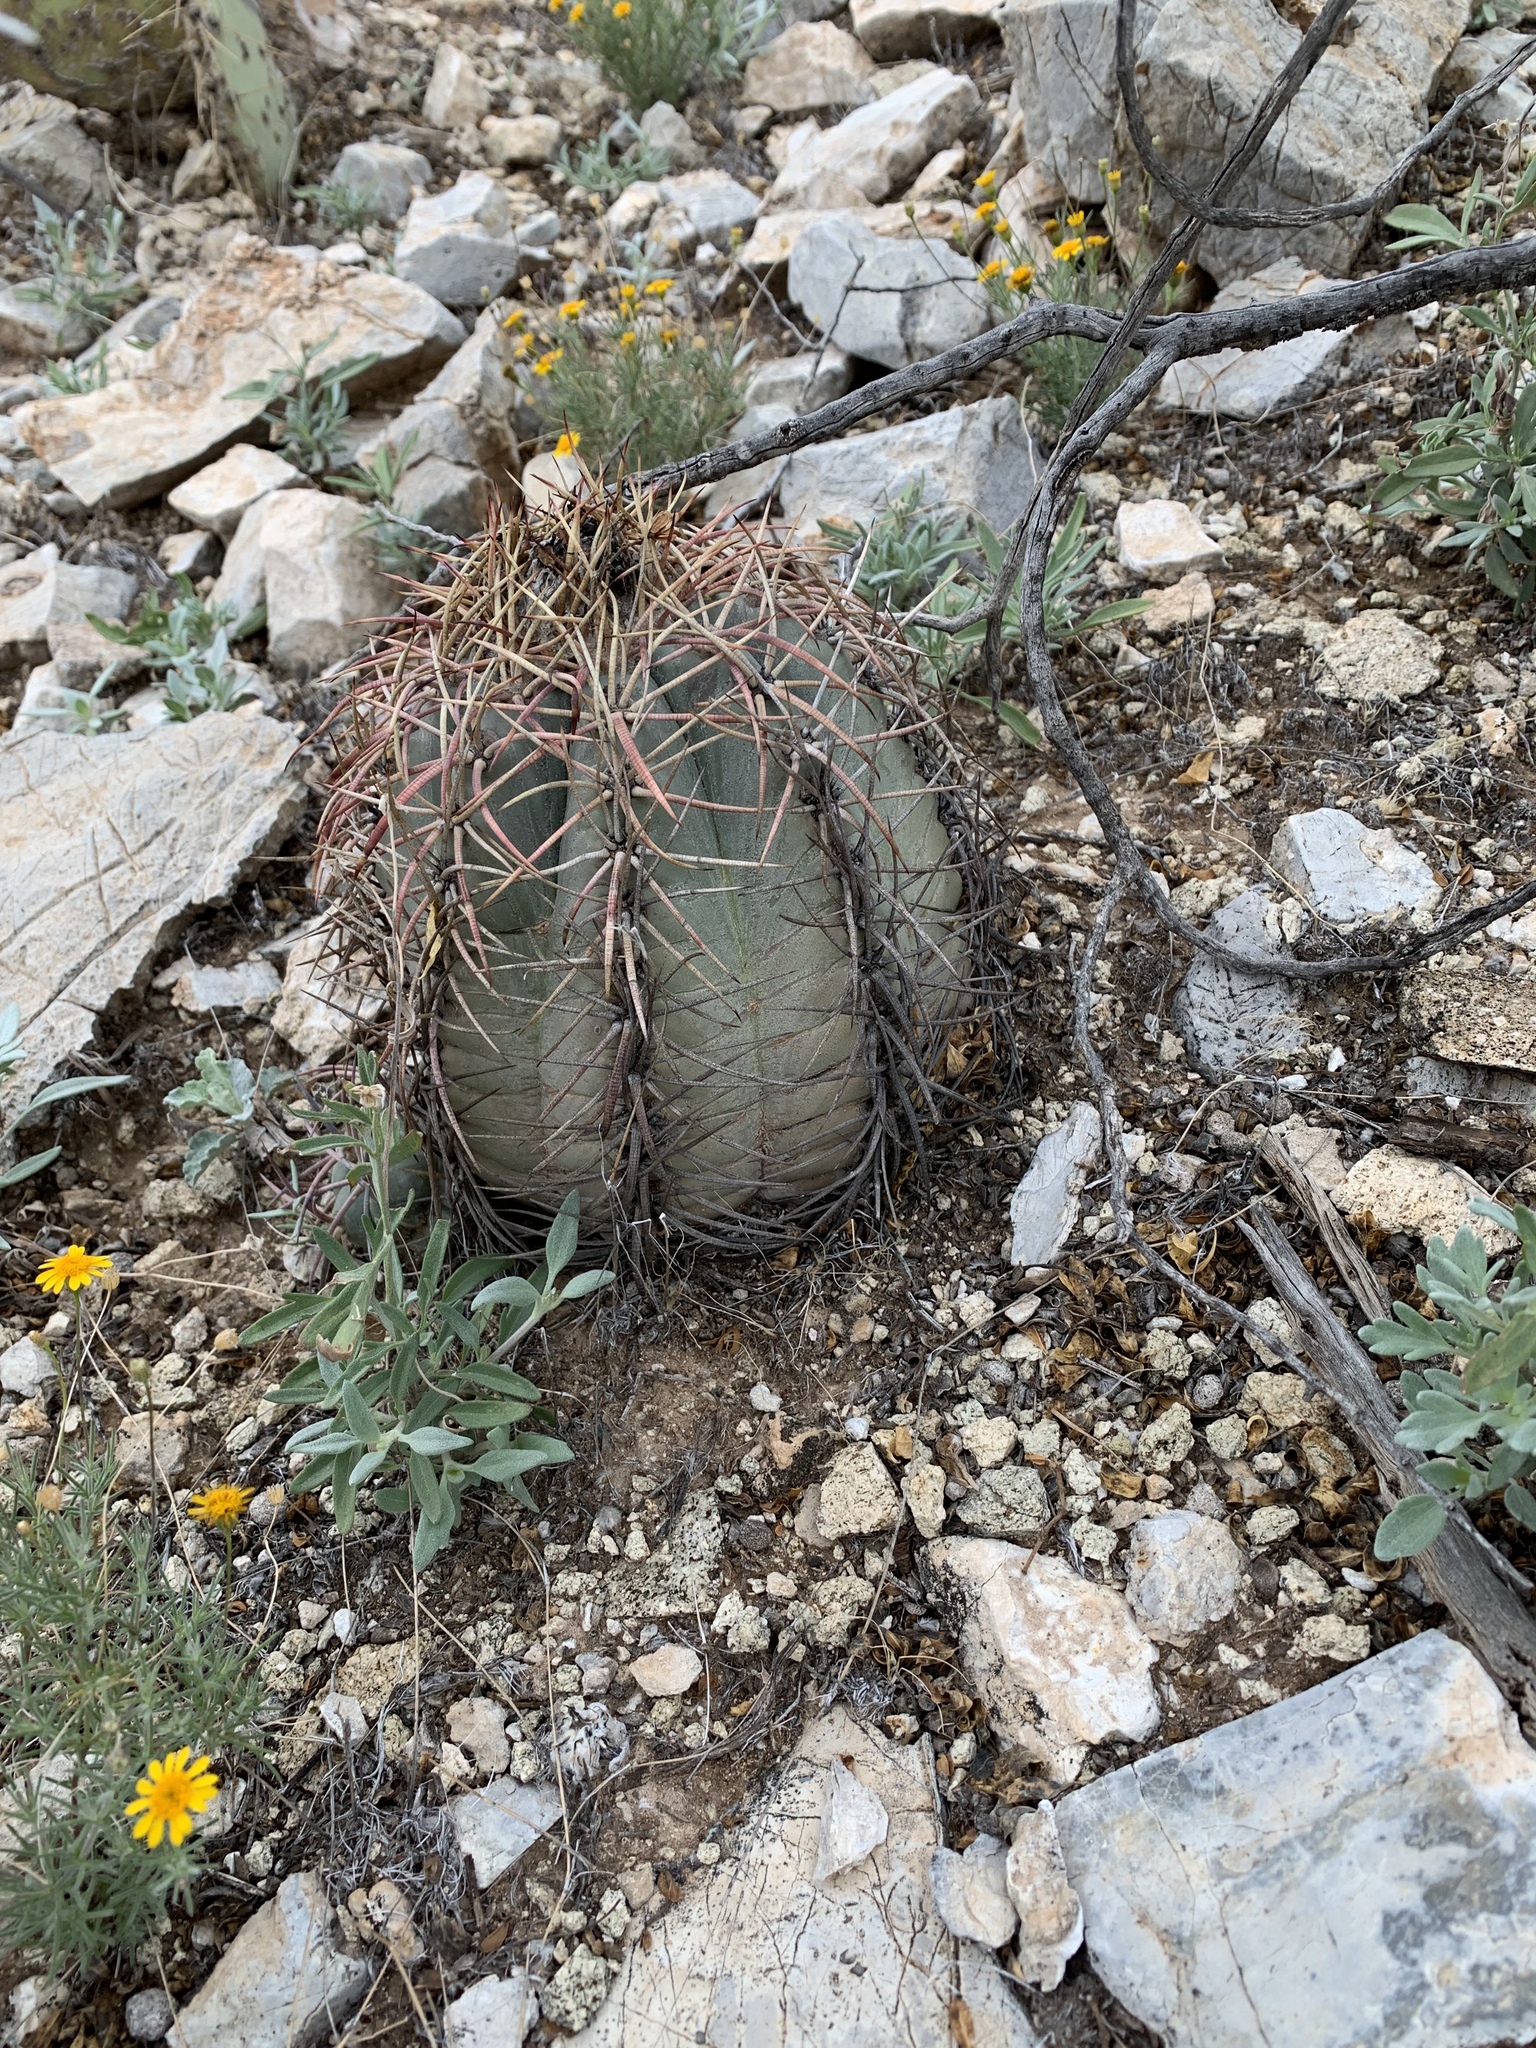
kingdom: Plantae
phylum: Tracheophyta
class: Magnoliopsida
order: Caryophyllales
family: Cactaceae
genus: Echinocactus
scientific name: Echinocactus horizonthalonius
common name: Devilshead
